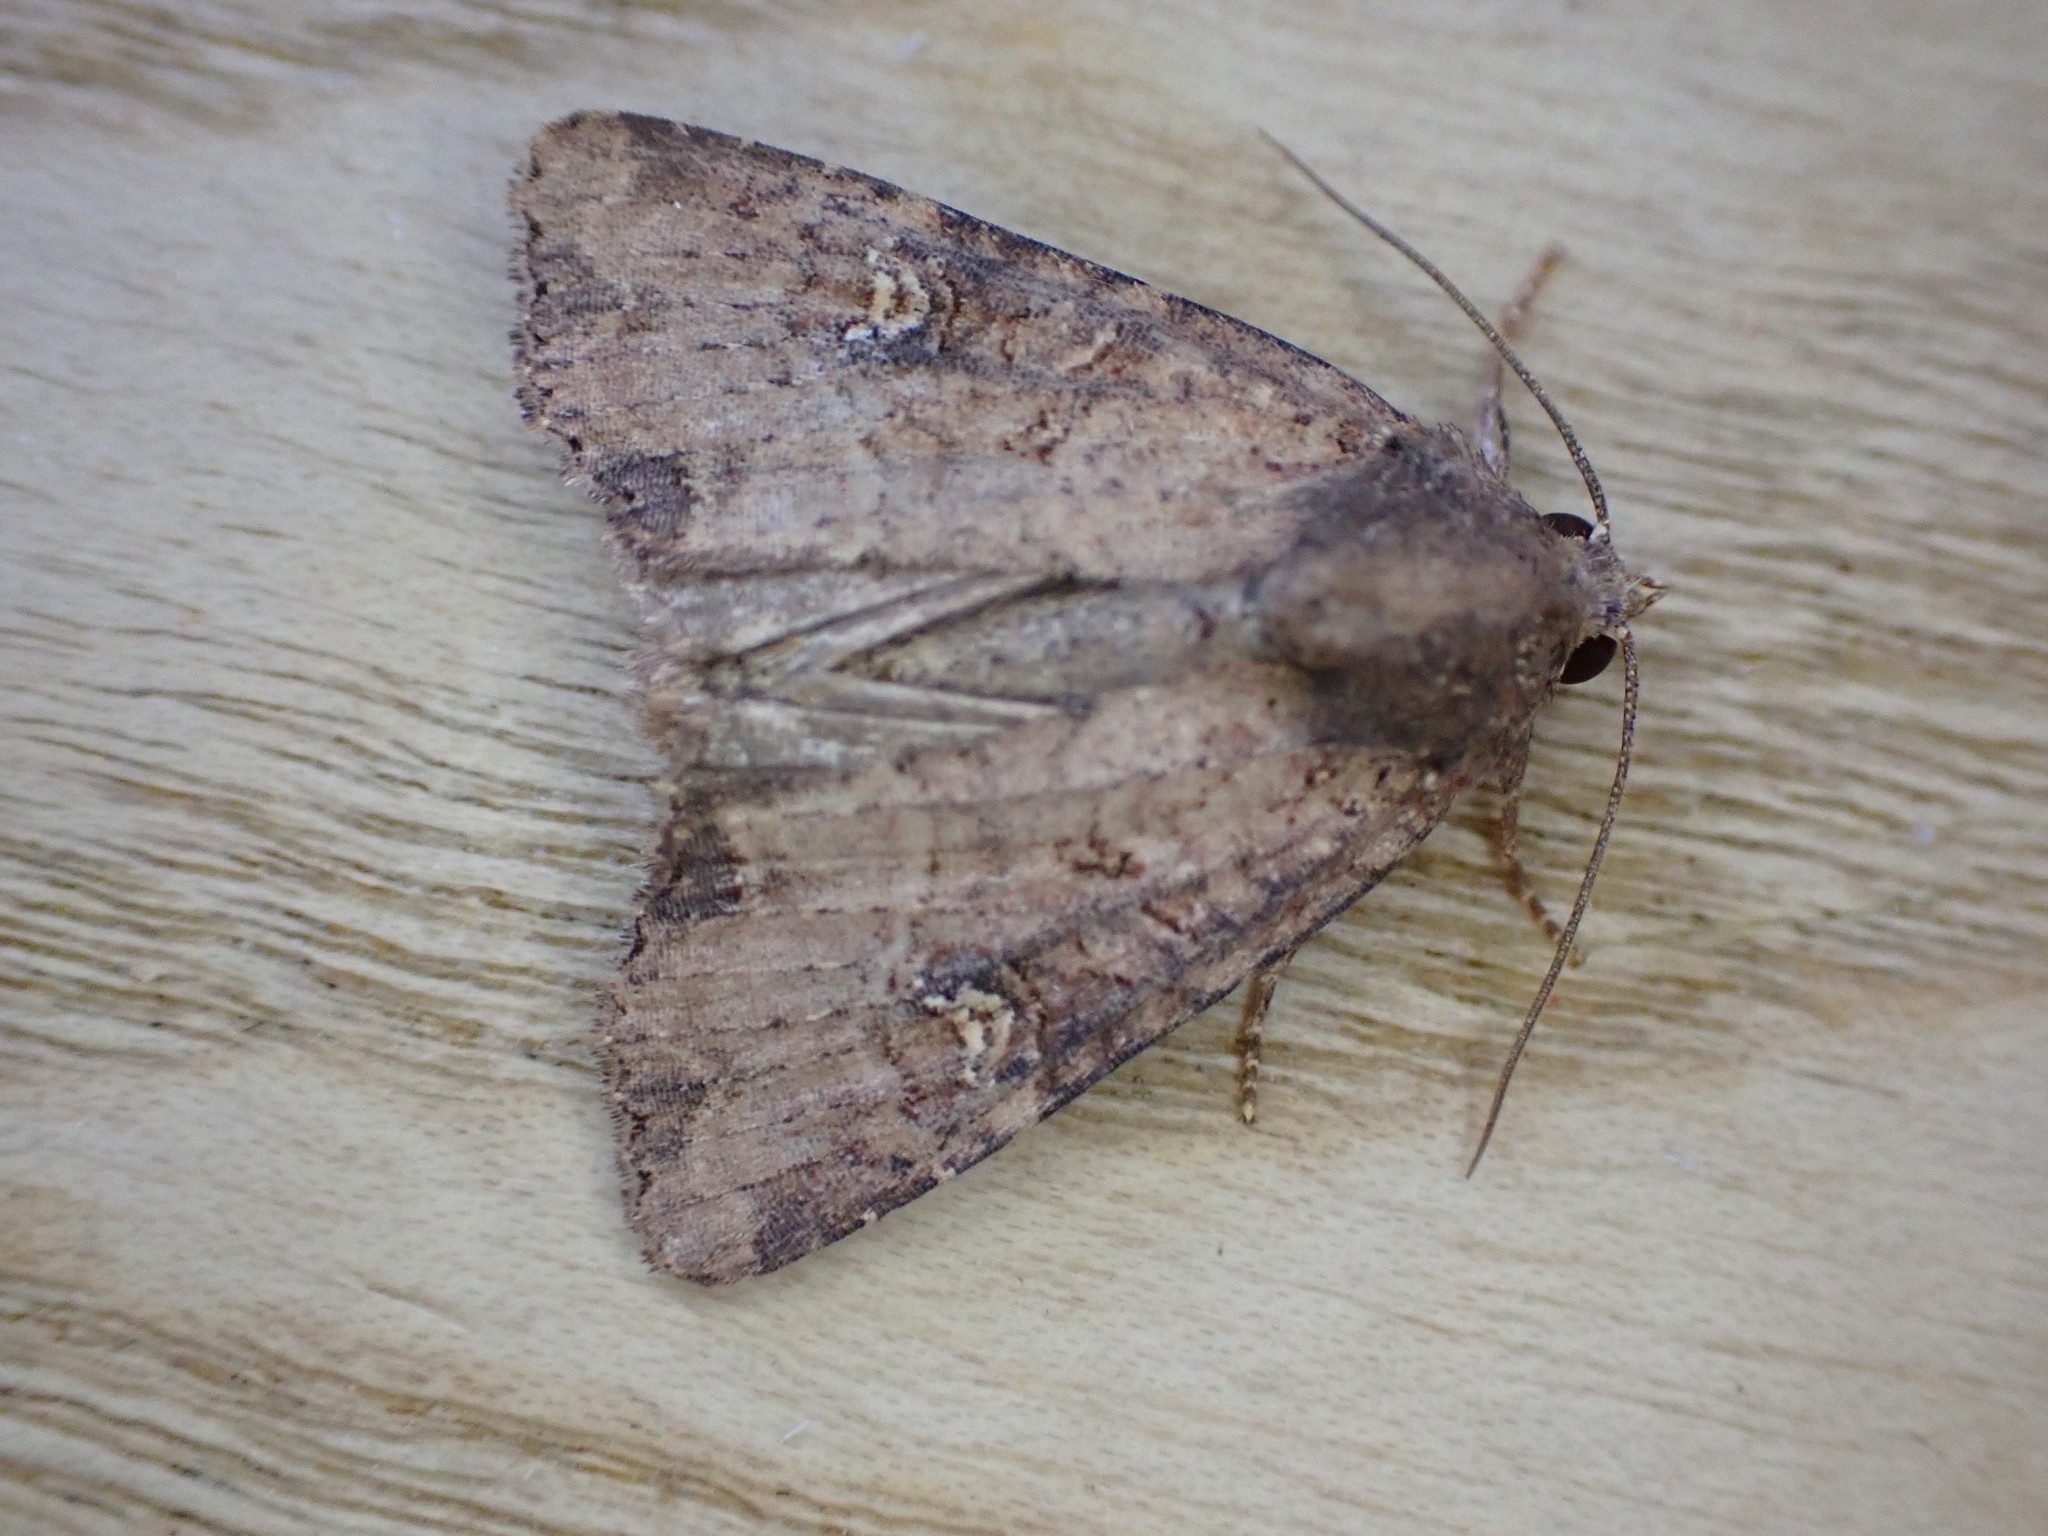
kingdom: Animalia
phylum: Arthropoda
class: Insecta
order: Lepidoptera
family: Noctuidae
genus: Mesapamea
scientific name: Mesapamea
